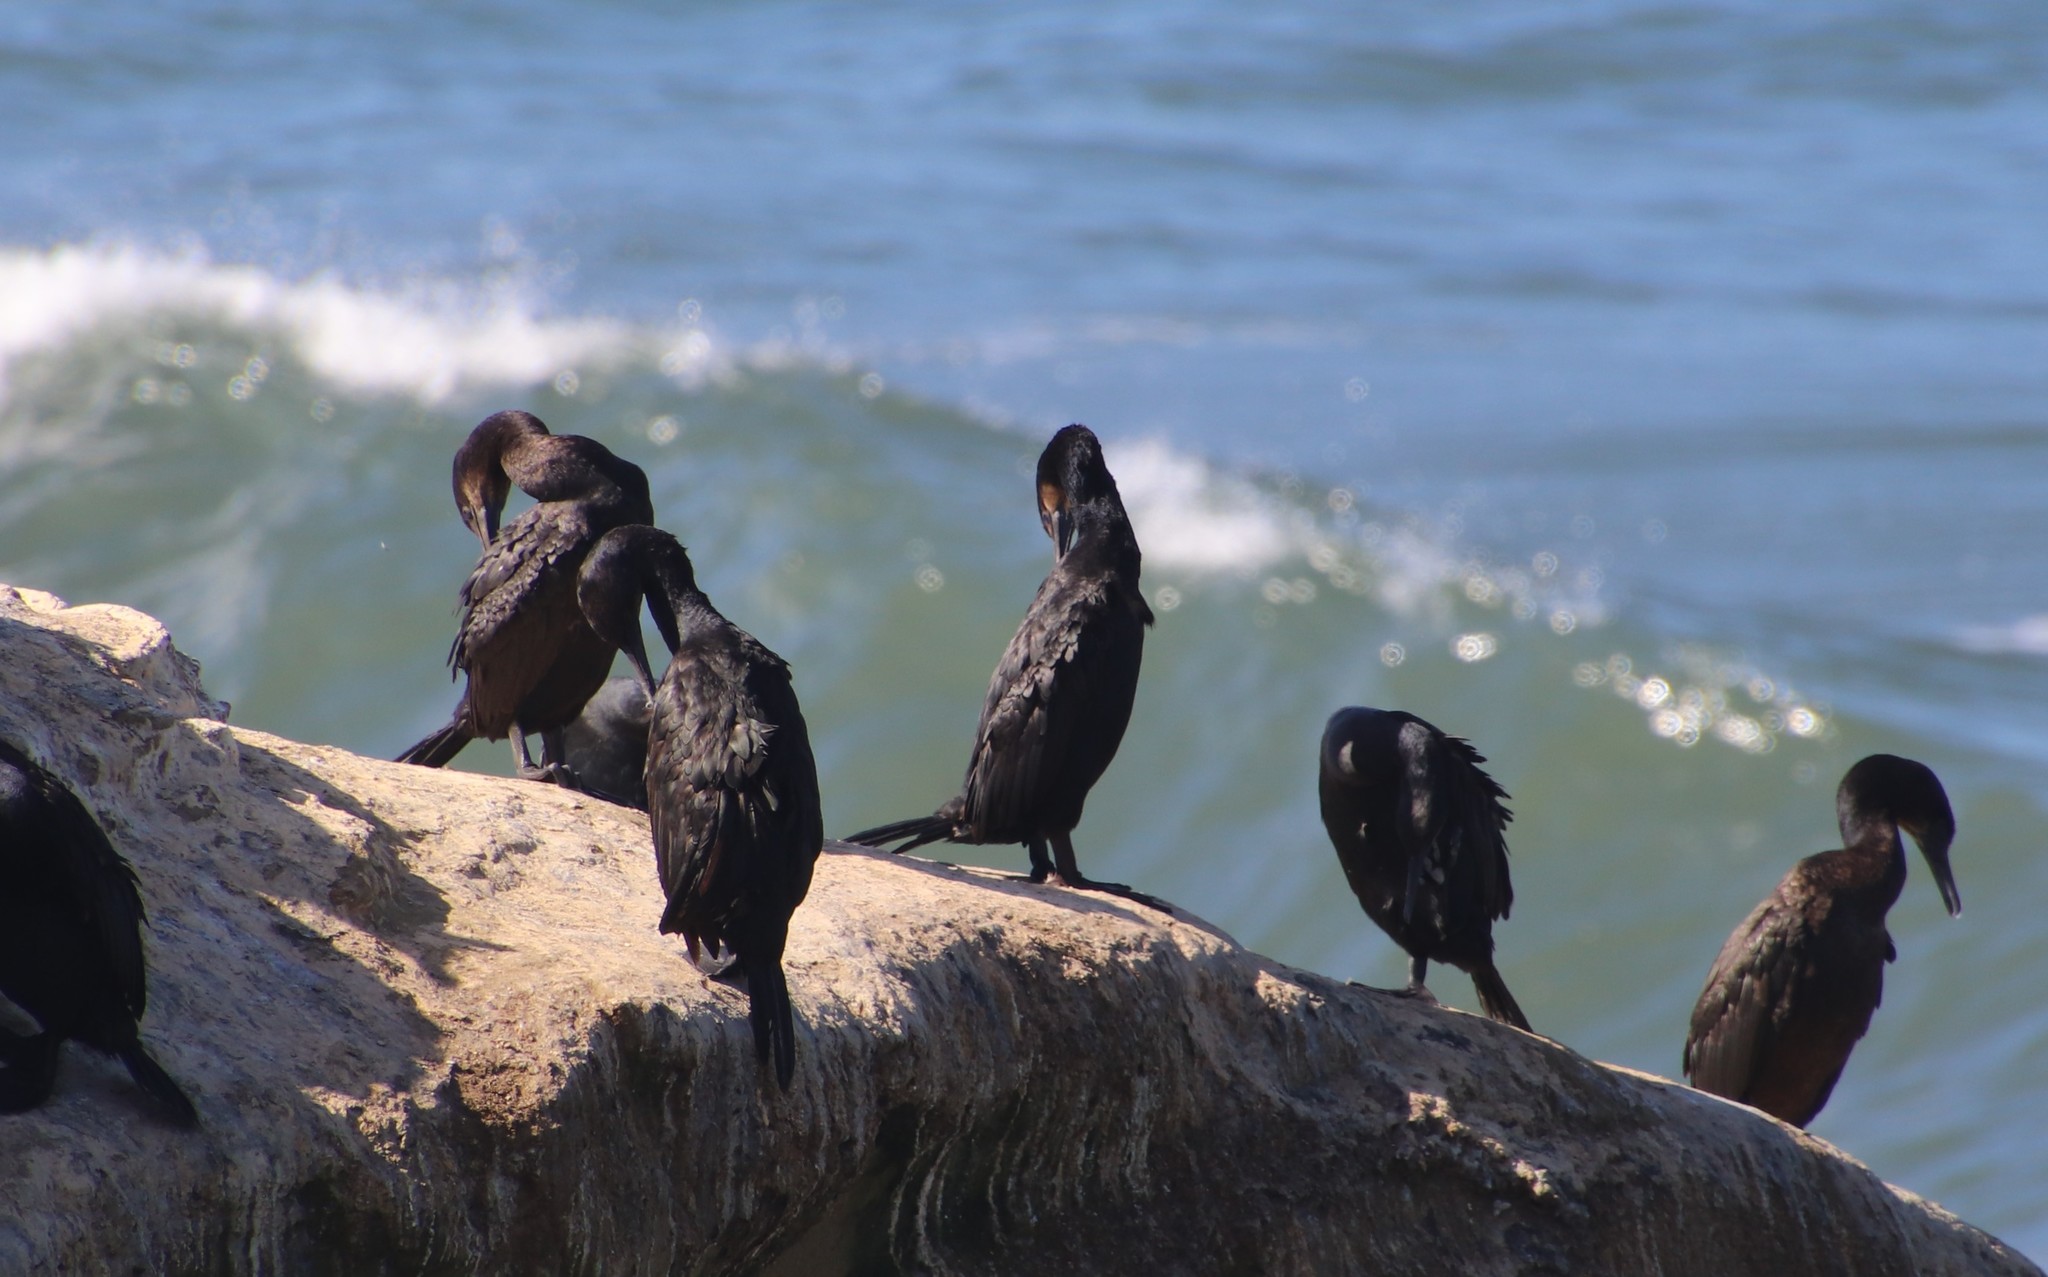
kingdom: Animalia
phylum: Chordata
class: Aves
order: Suliformes
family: Phalacrocoracidae
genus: Urile
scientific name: Urile penicillatus
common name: Brandt's cormorant
